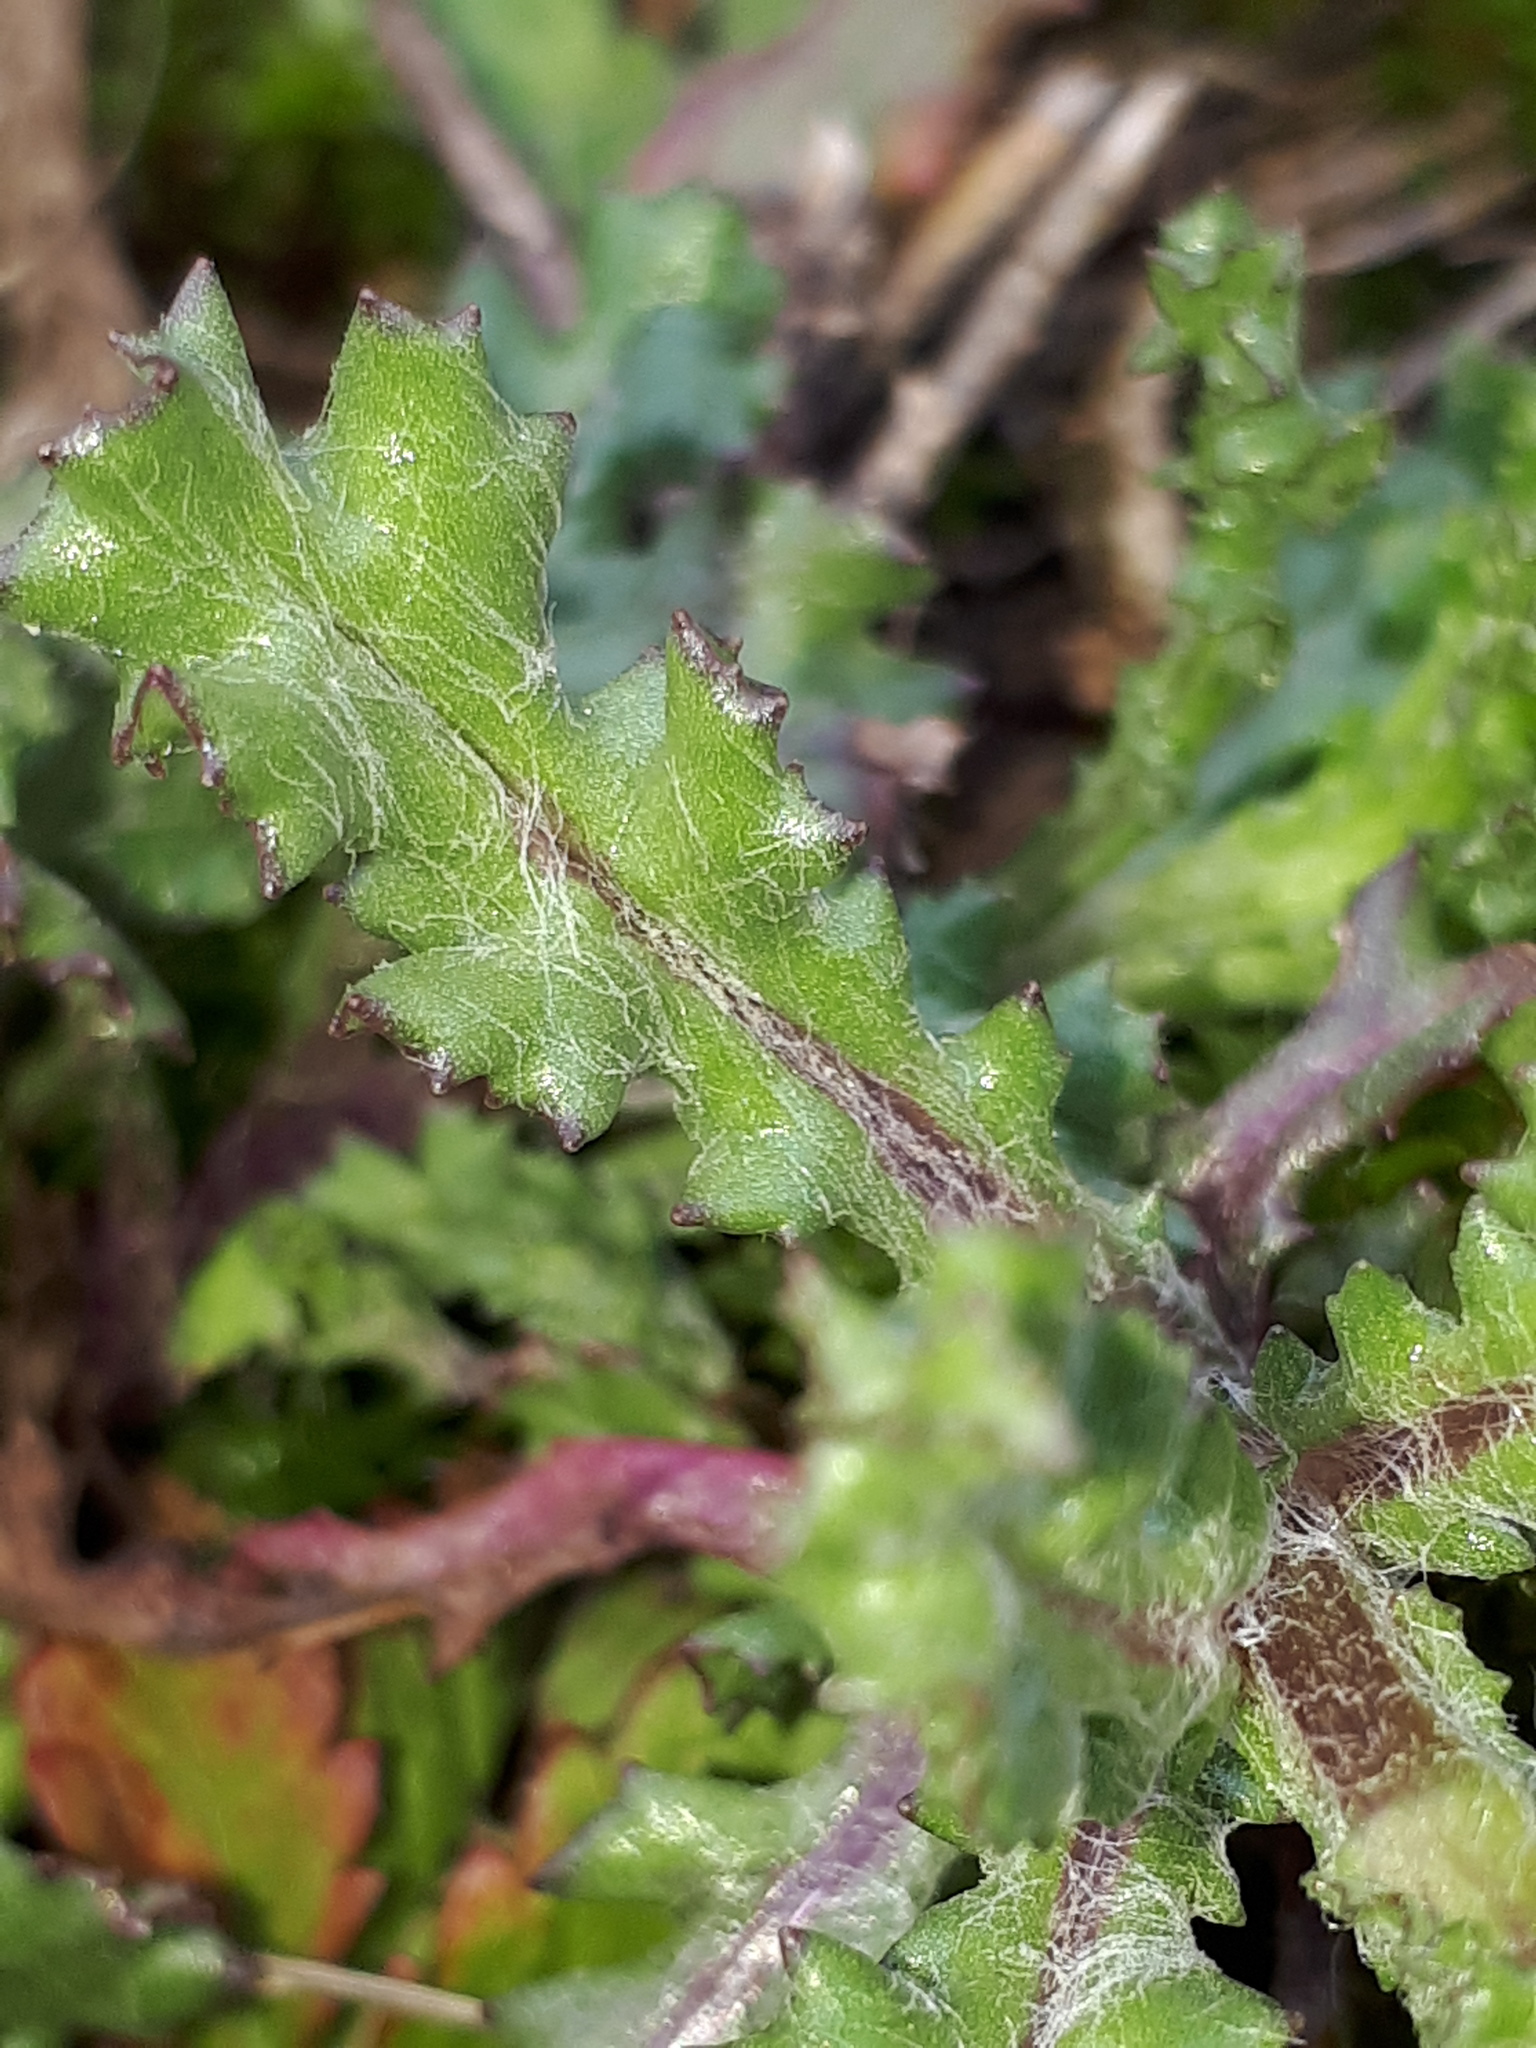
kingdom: Plantae
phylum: Tracheophyta
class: Magnoliopsida
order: Asterales
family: Asteraceae
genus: Senecio
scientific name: Senecio vulgaris
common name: Old-man-in-the-spring
